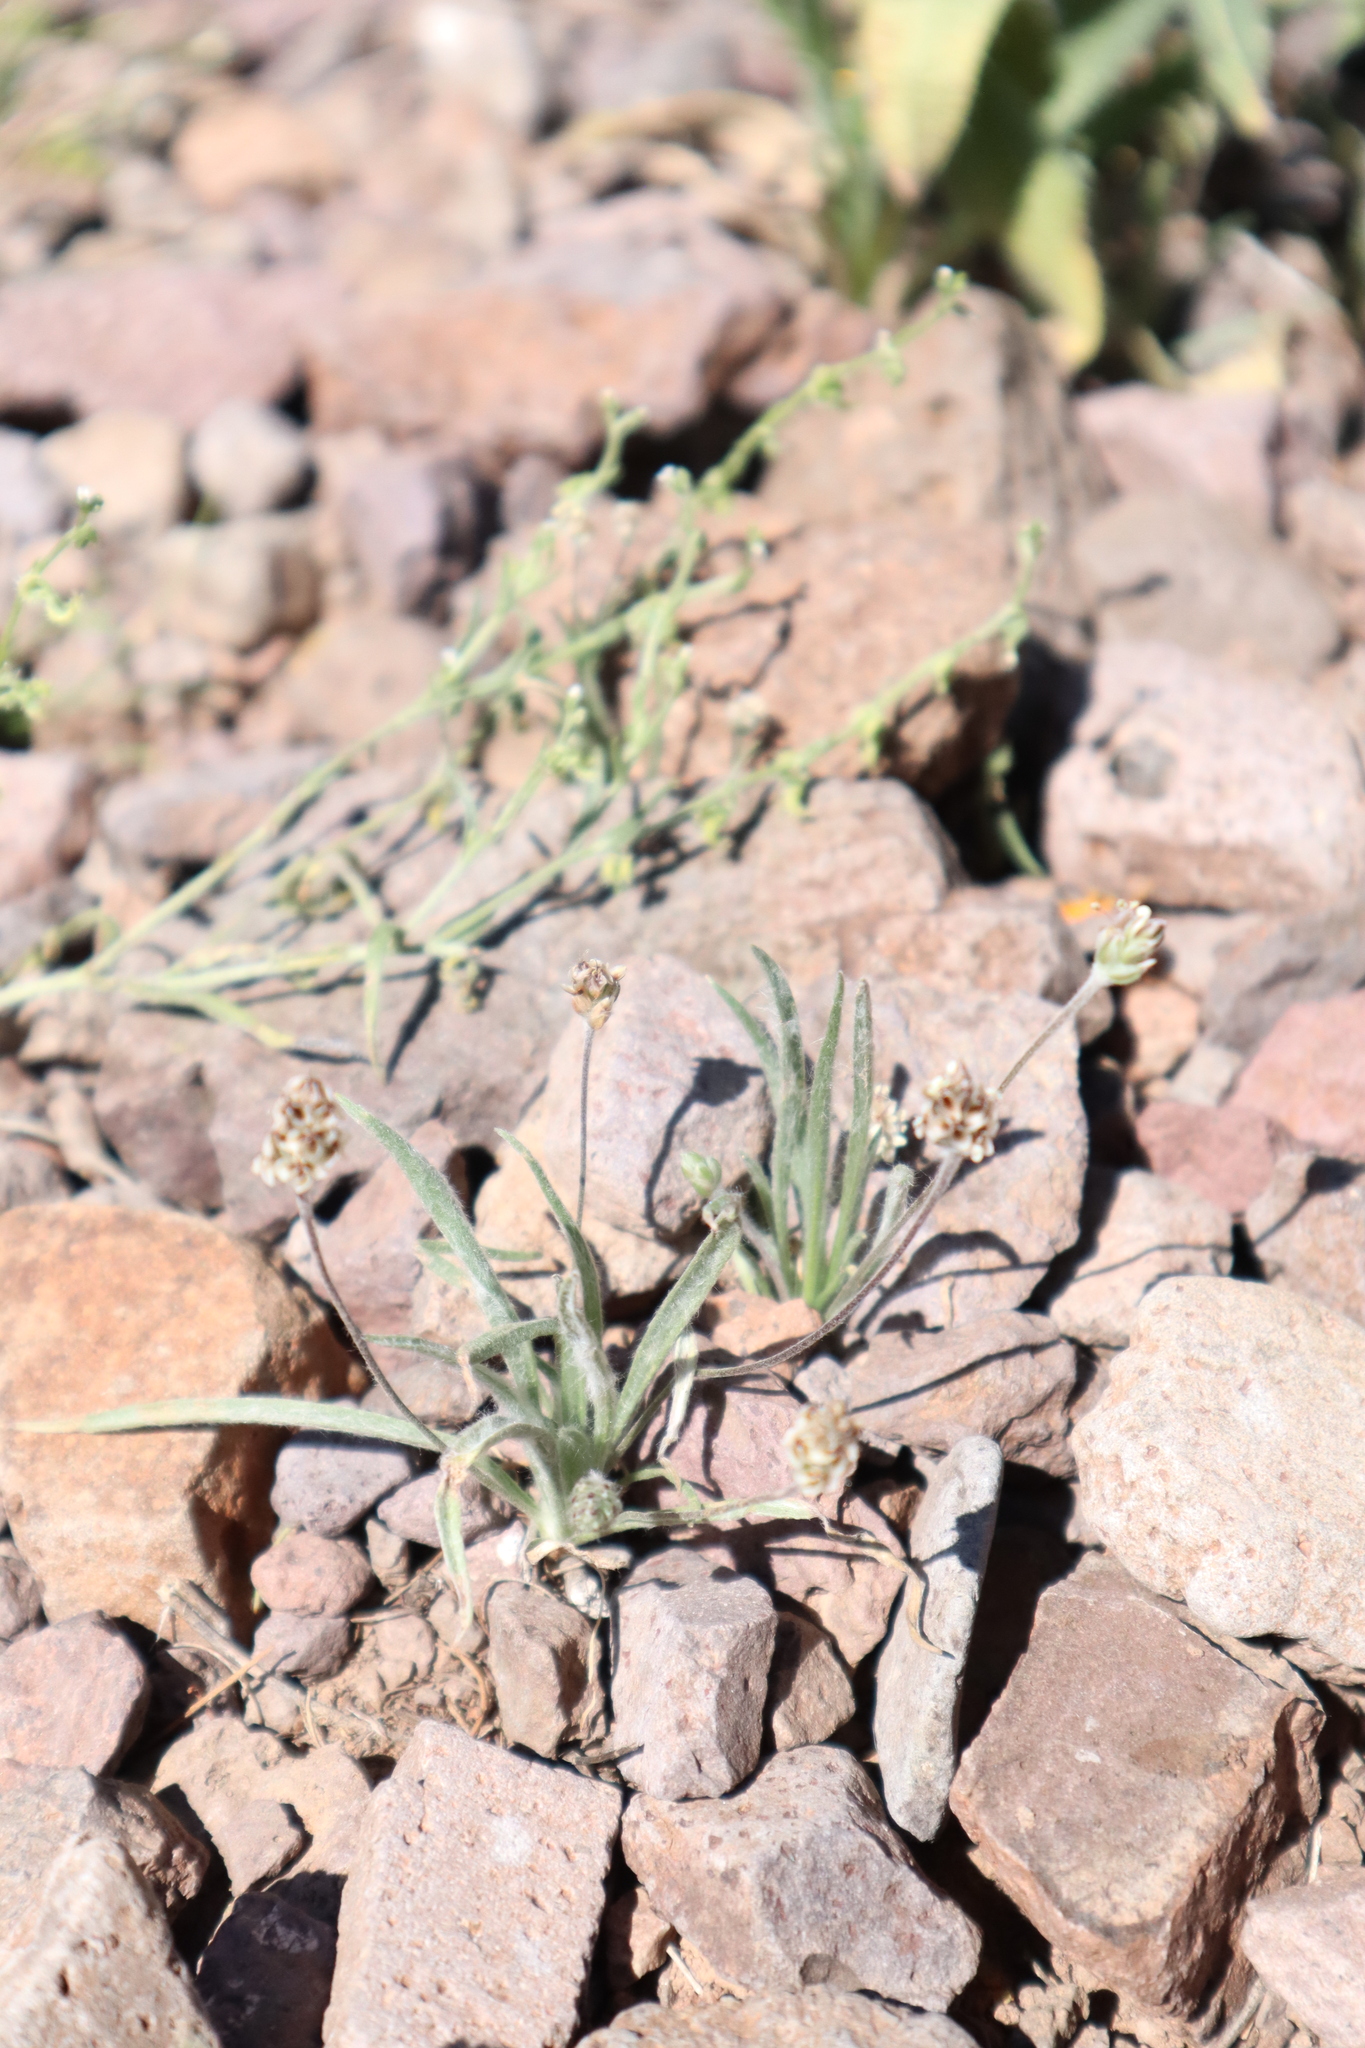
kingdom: Plantae
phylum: Tracheophyta
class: Magnoliopsida
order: Lamiales
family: Plantaginaceae
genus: Plantago
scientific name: Plantago ovata
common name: Blond plantain
